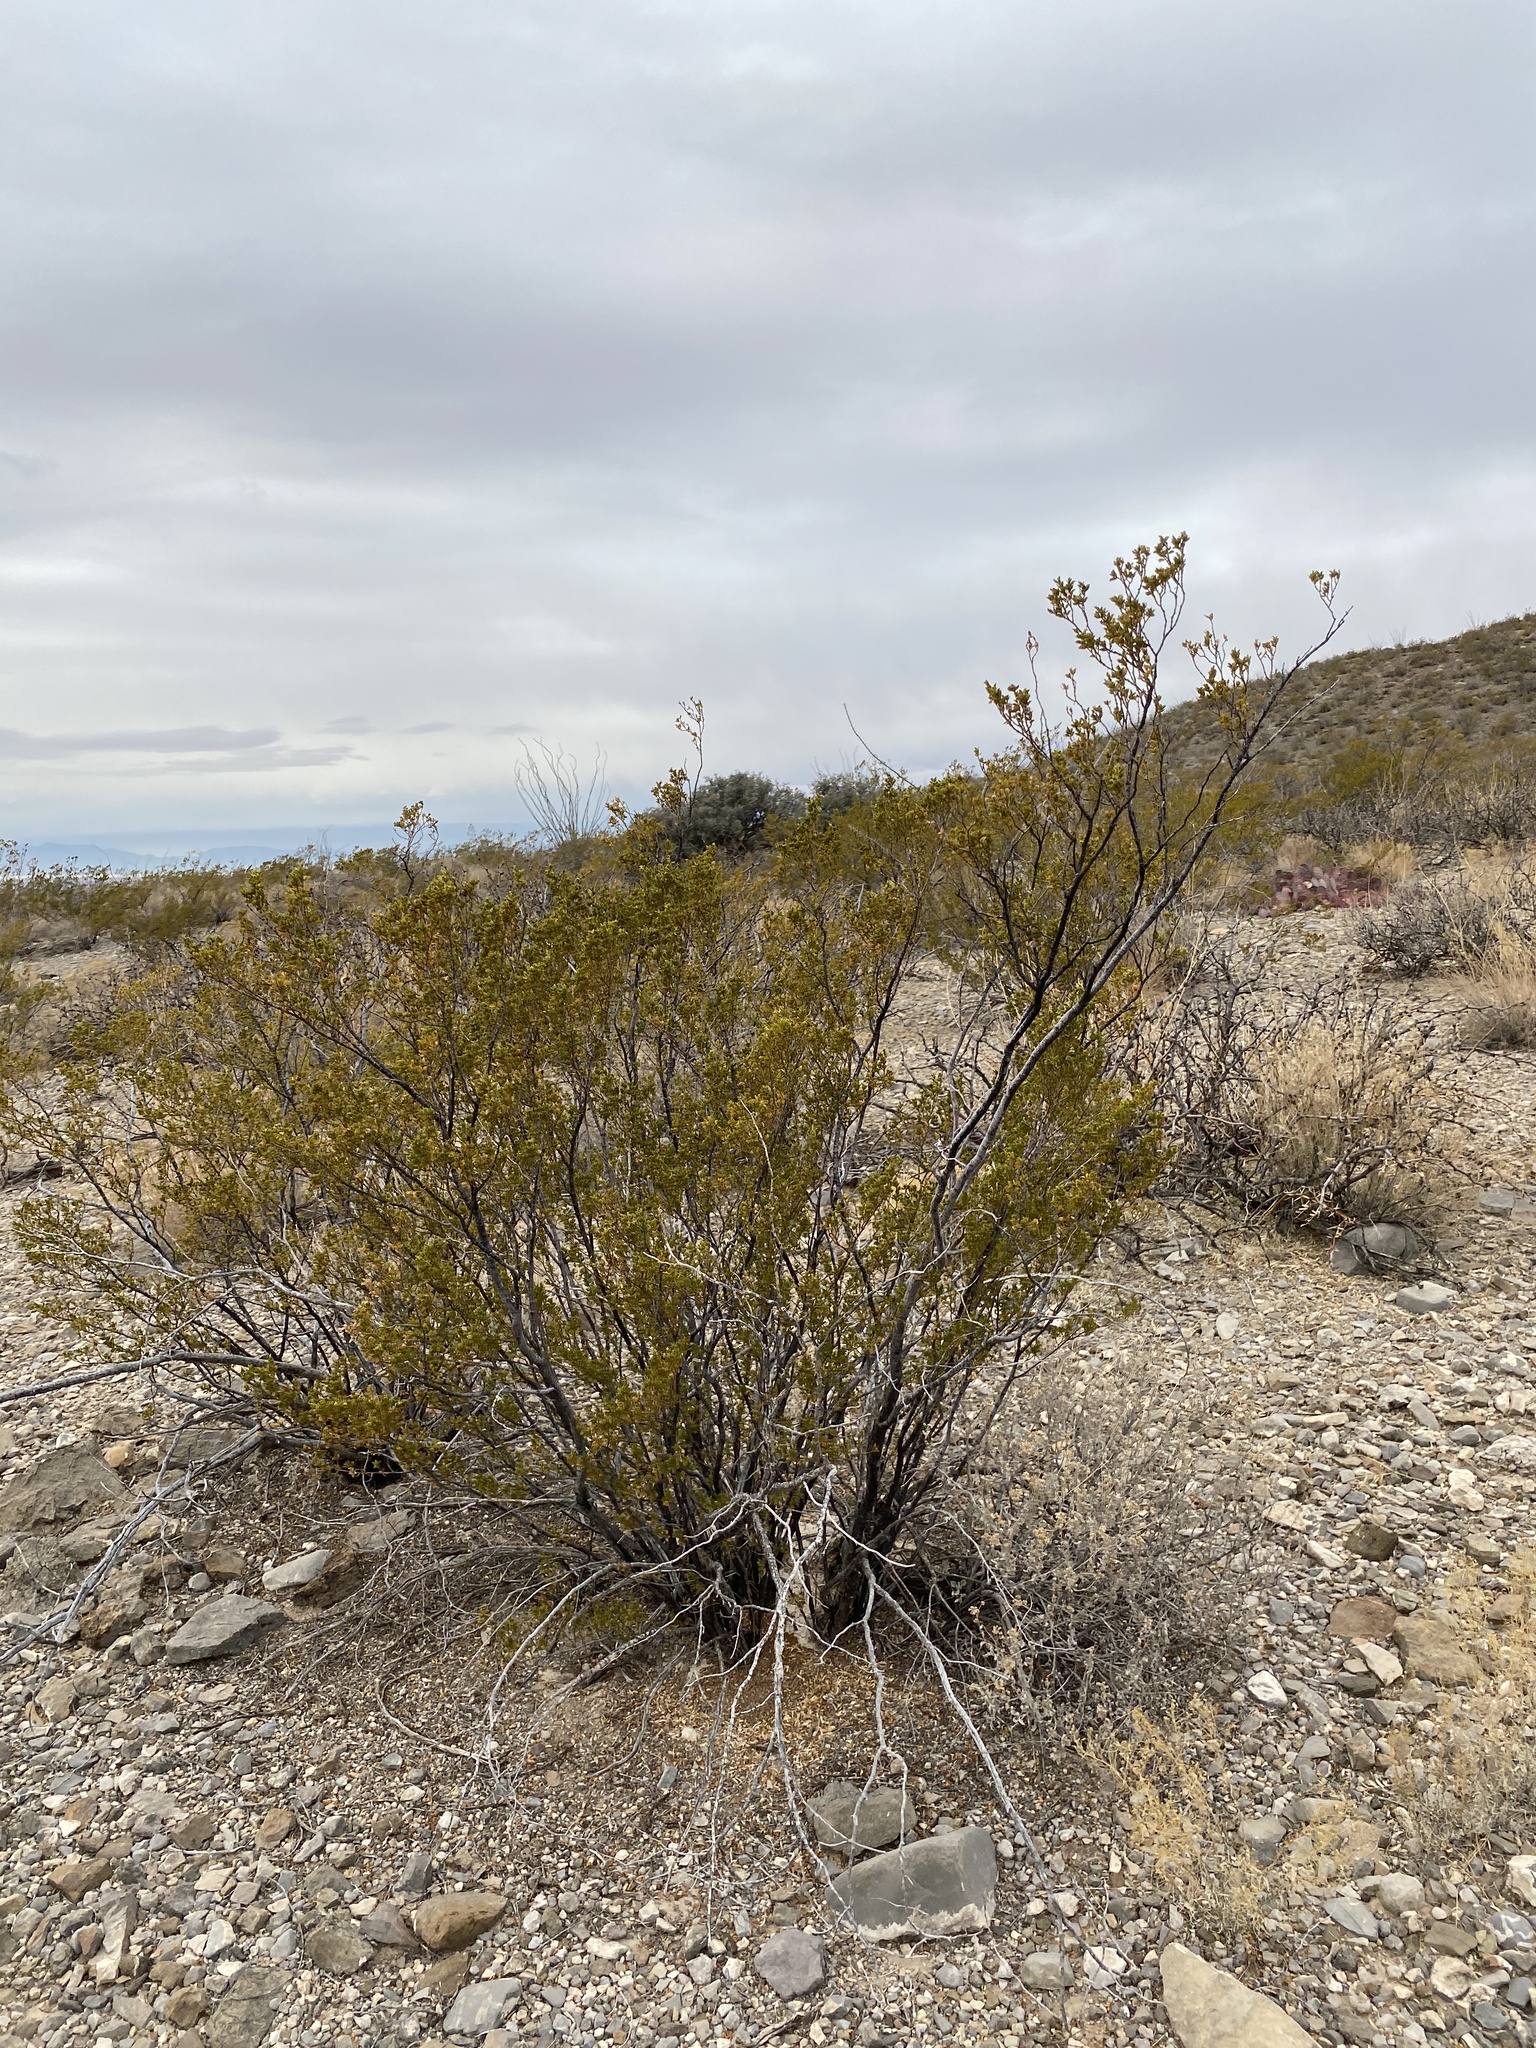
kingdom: Plantae
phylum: Tracheophyta
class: Magnoliopsida
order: Zygophyllales
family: Zygophyllaceae
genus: Larrea
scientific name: Larrea tridentata
